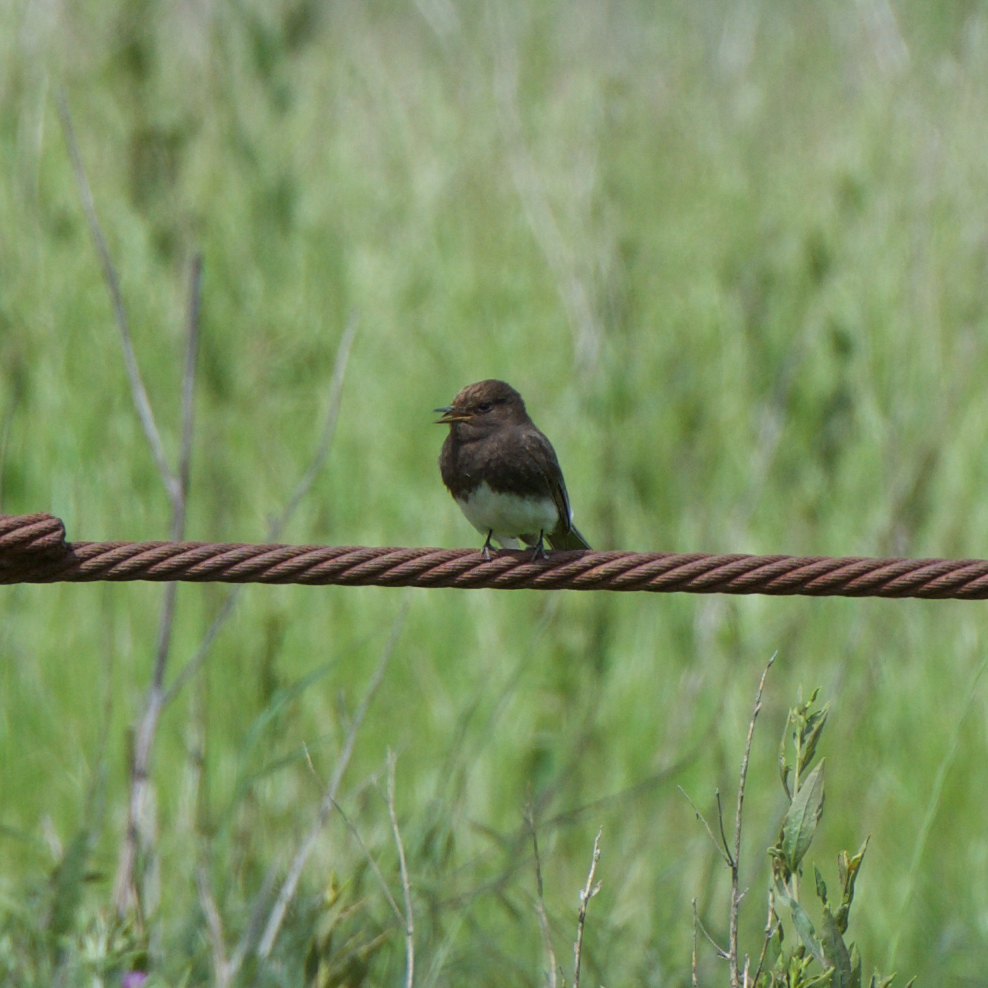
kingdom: Animalia
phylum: Chordata
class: Aves
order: Passeriformes
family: Tyrannidae
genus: Sayornis
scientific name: Sayornis nigricans
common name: Black phoebe
